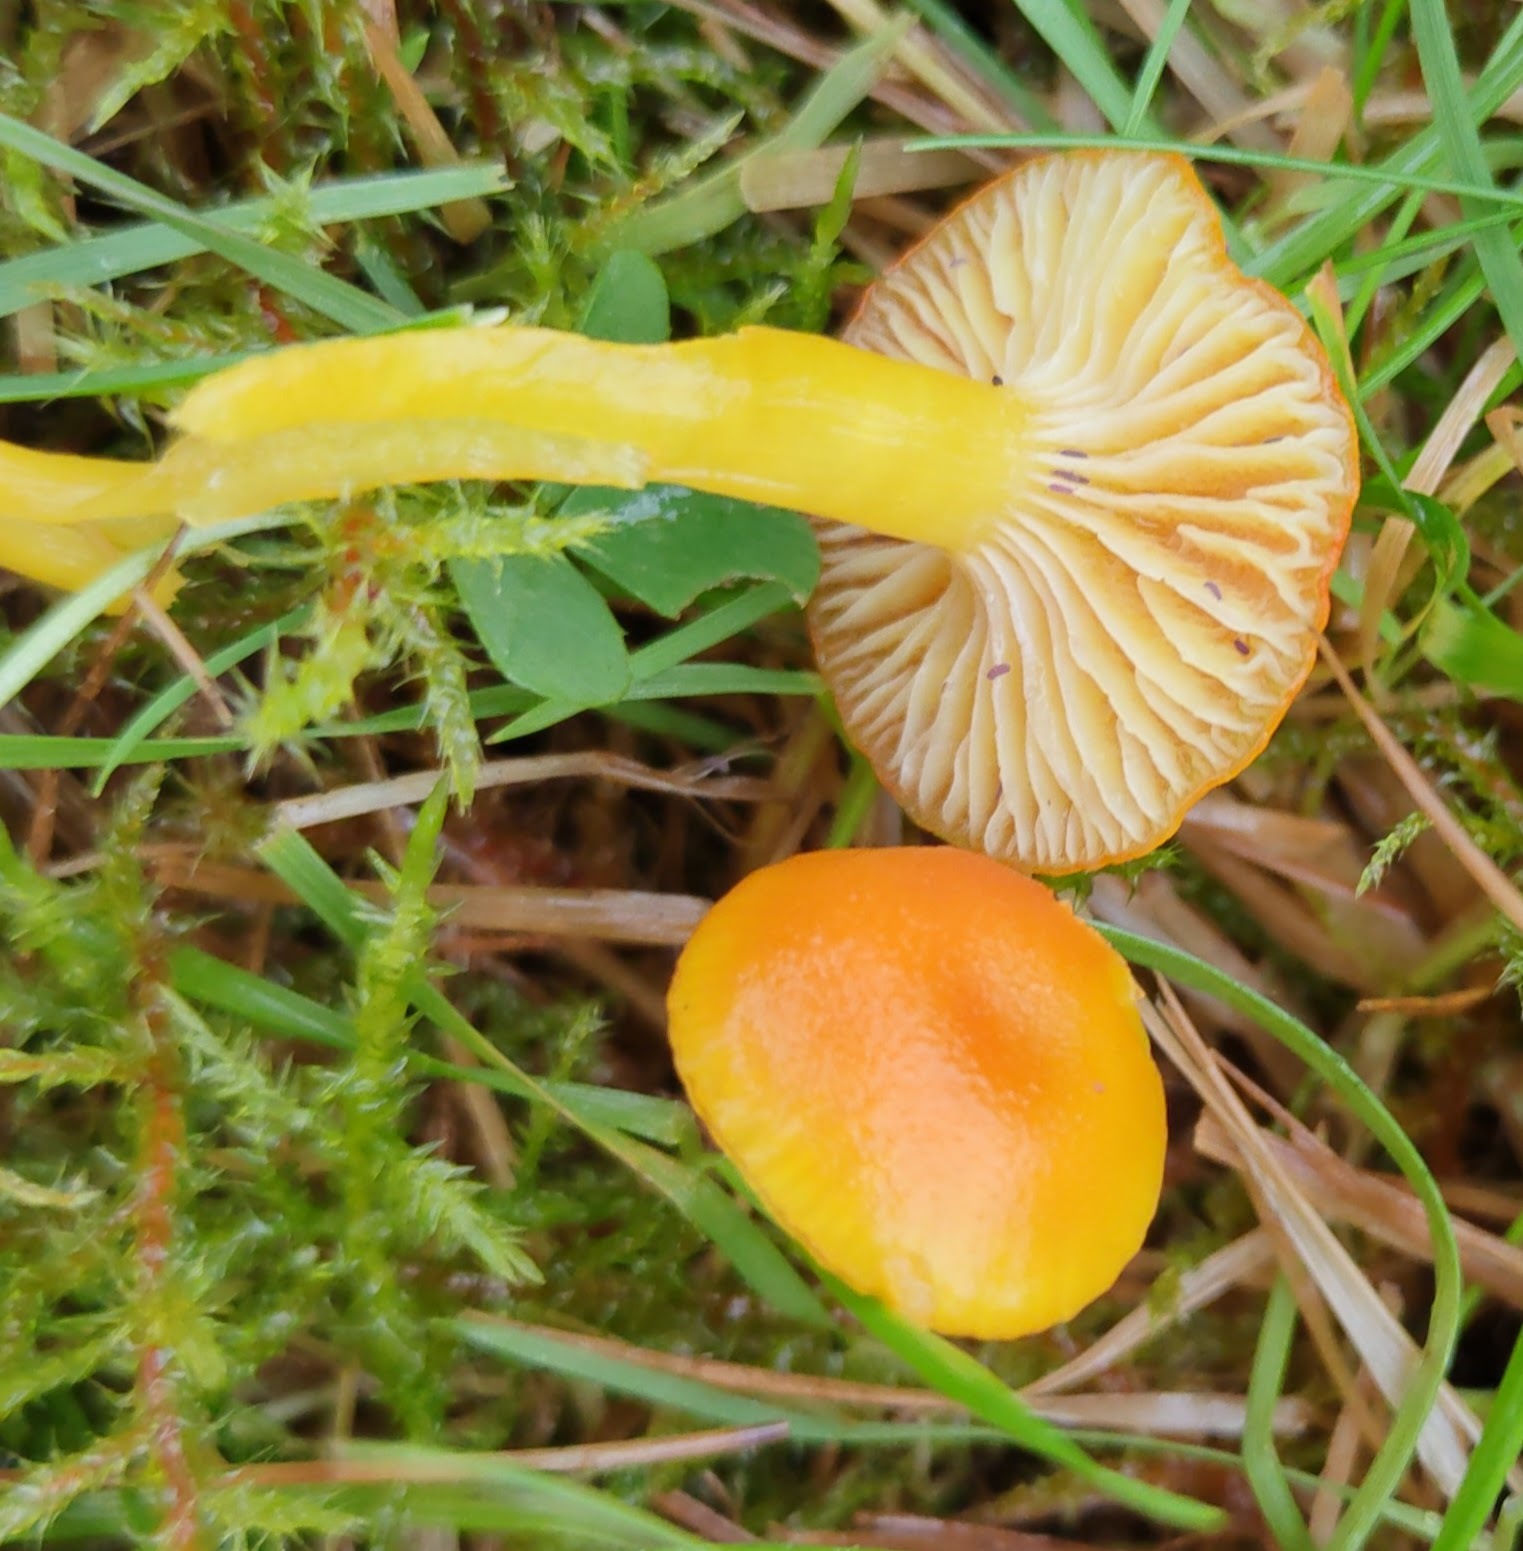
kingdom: Fungi
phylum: Basidiomycota
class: Agaricomycetes
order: Agaricales
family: Hygrophoraceae
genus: Hygrocybe
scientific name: Hygrocybe ceracea
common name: Butter waxcap
